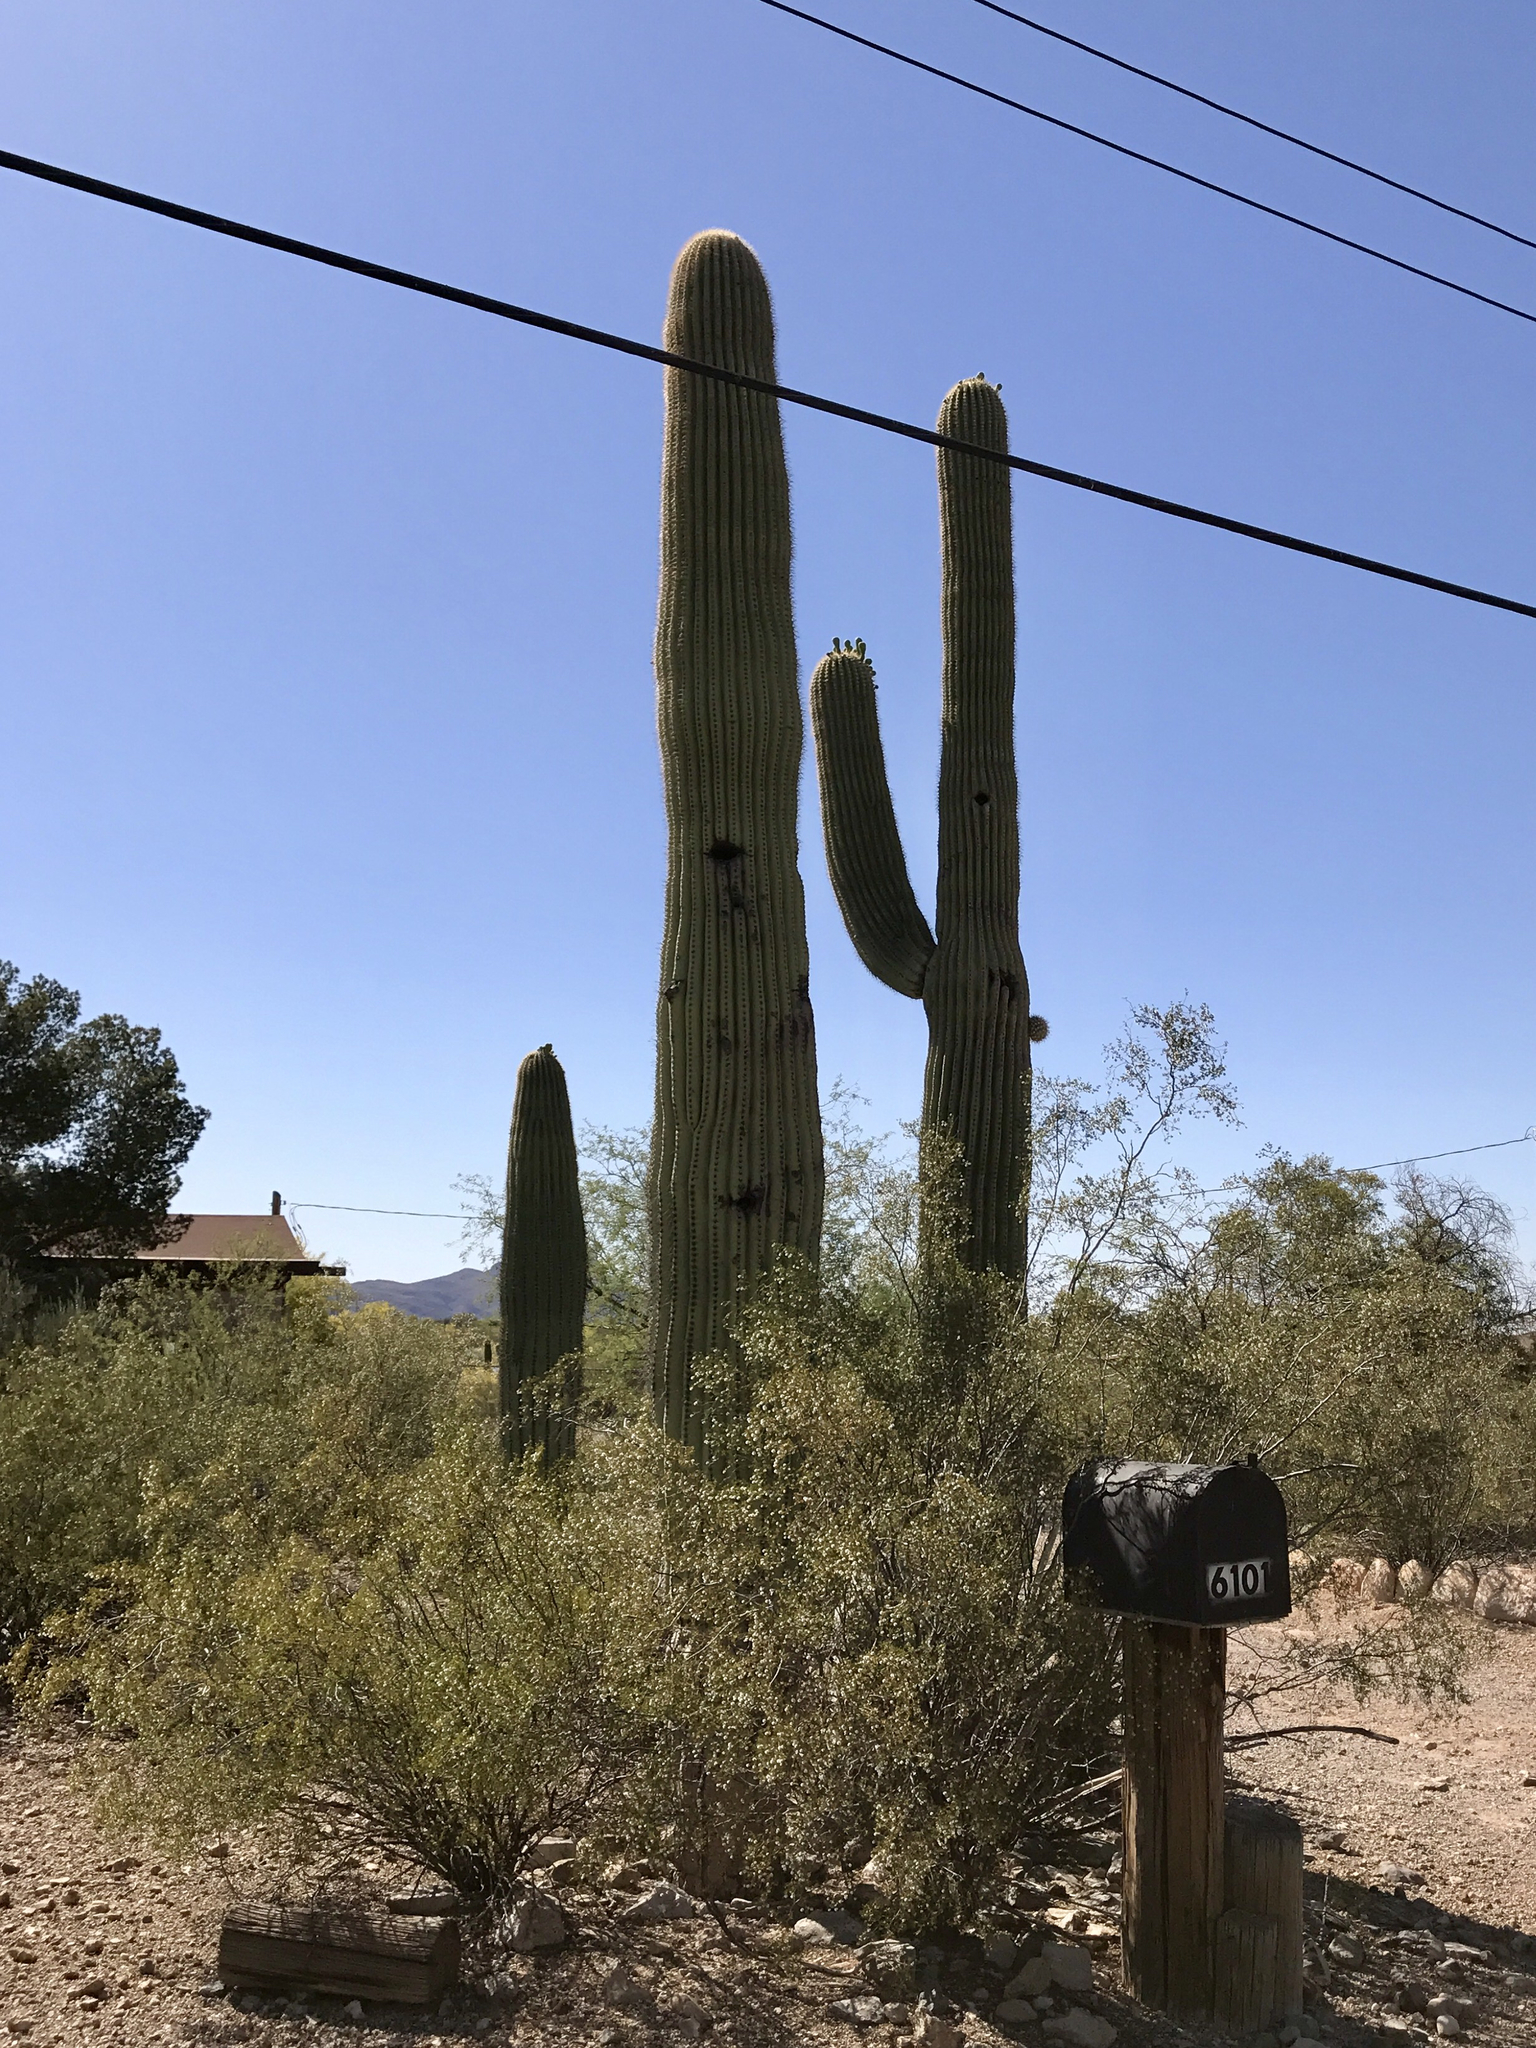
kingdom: Plantae
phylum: Tracheophyta
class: Magnoliopsida
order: Caryophyllales
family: Cactaceae
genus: Carnegiea
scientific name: Carnegiea gigantea
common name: Saguaro
